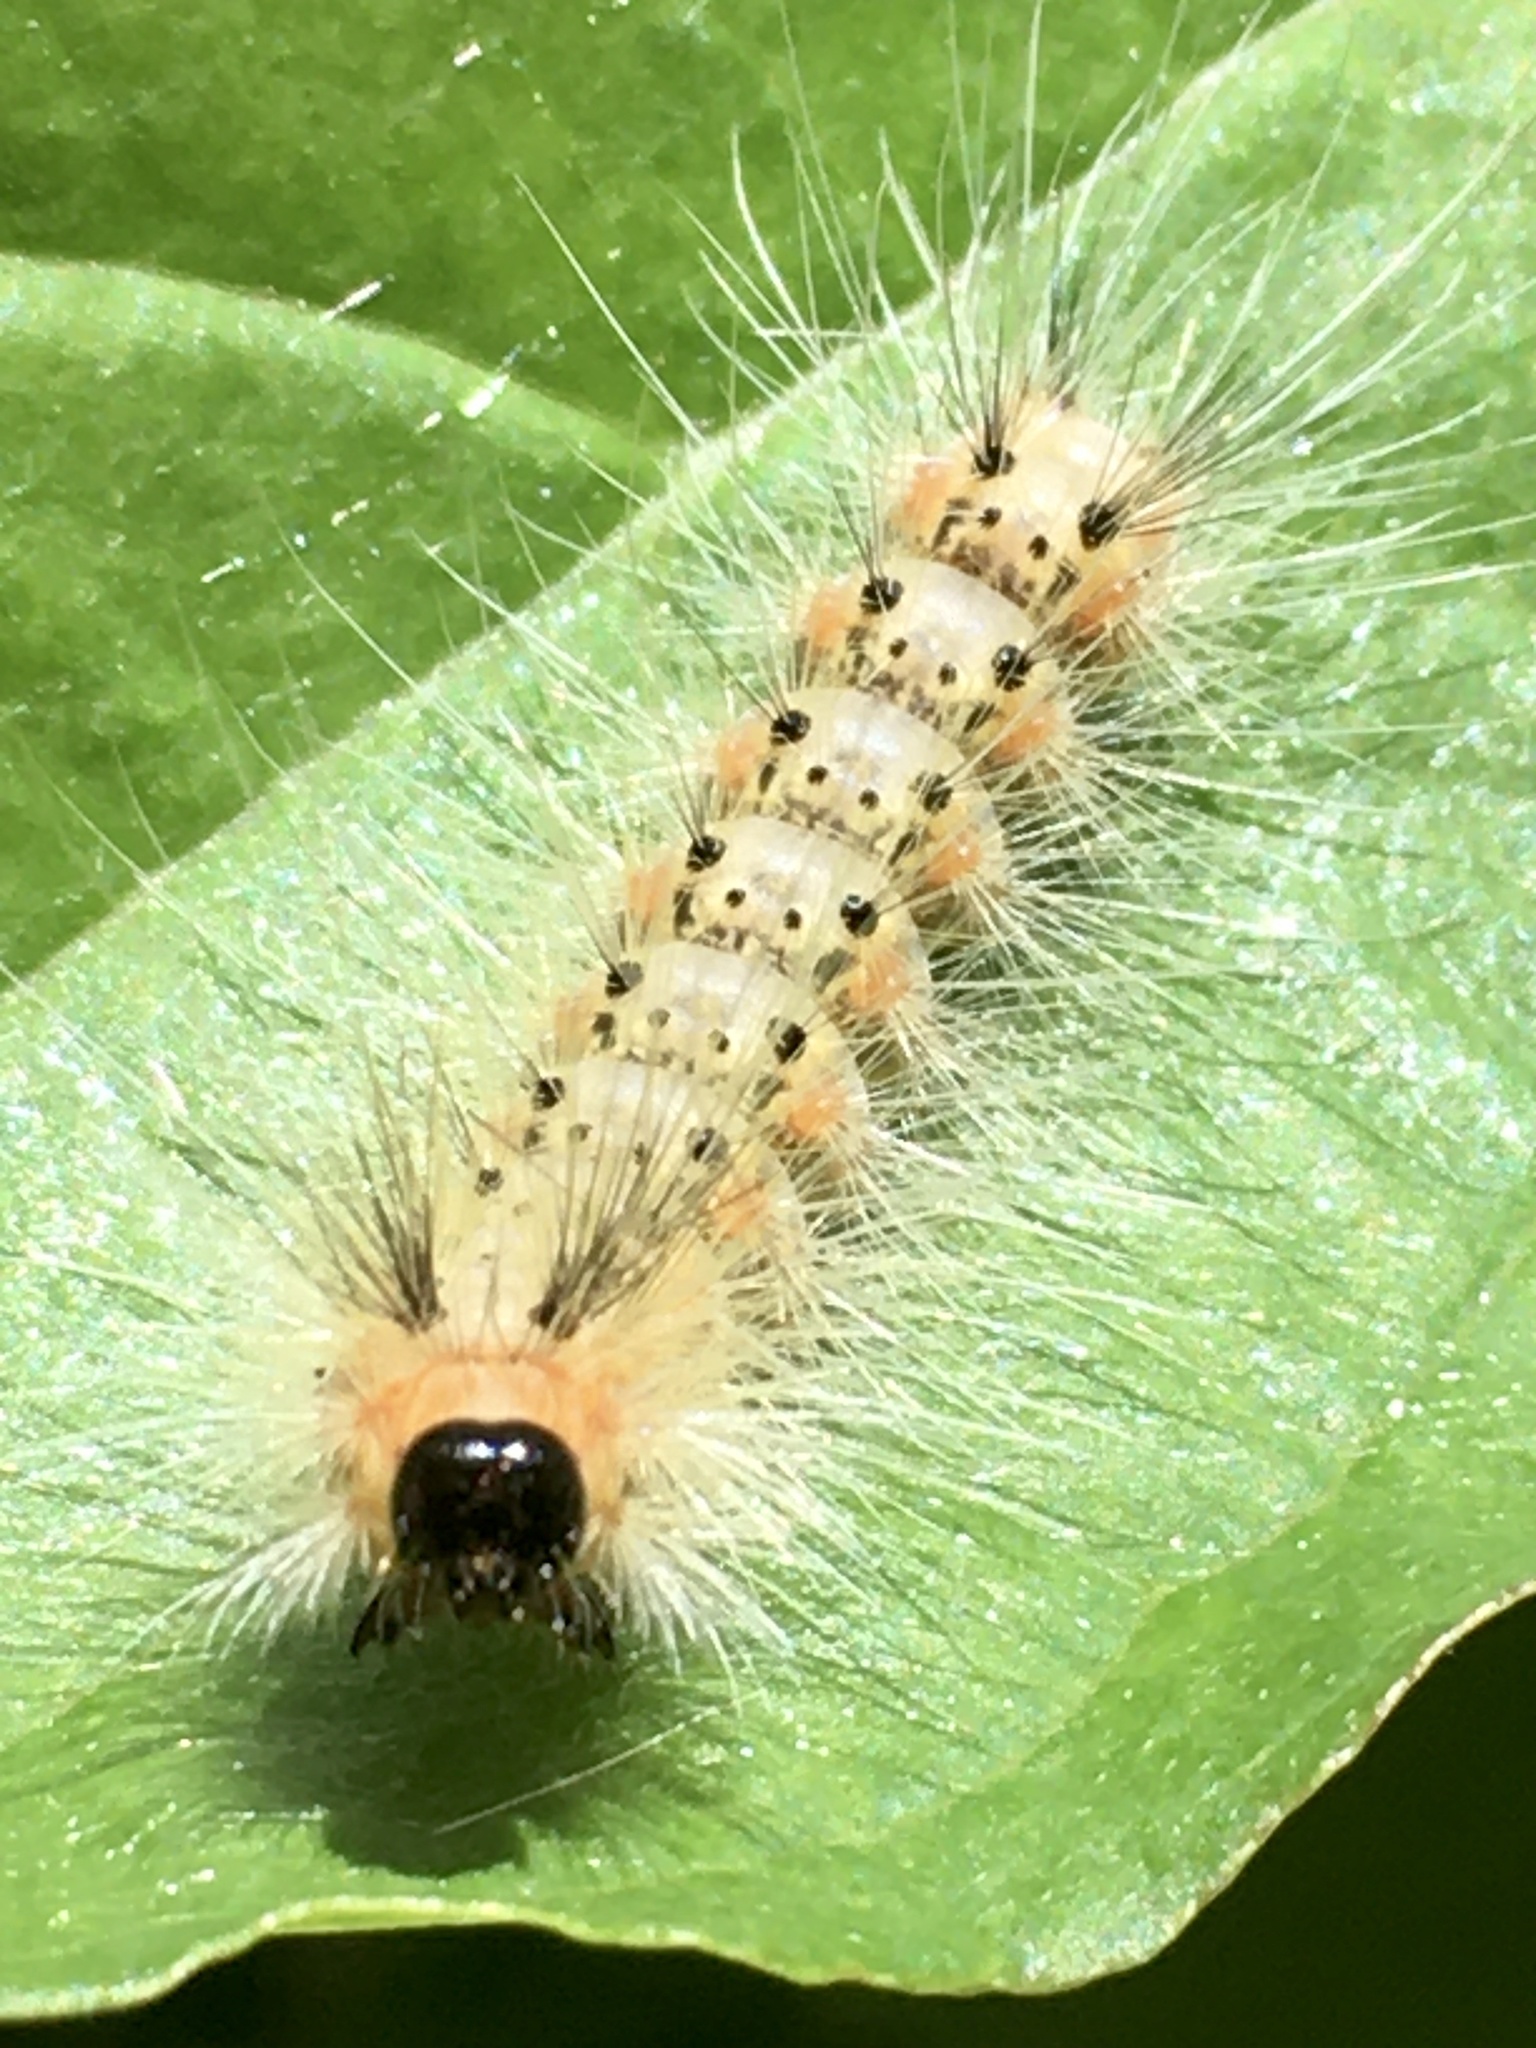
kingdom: Animalia
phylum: Arthropoda
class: Insecta
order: Lepidoptera
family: Erebidae
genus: Hyphantria
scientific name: Hyphantria cunea
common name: American white moth
